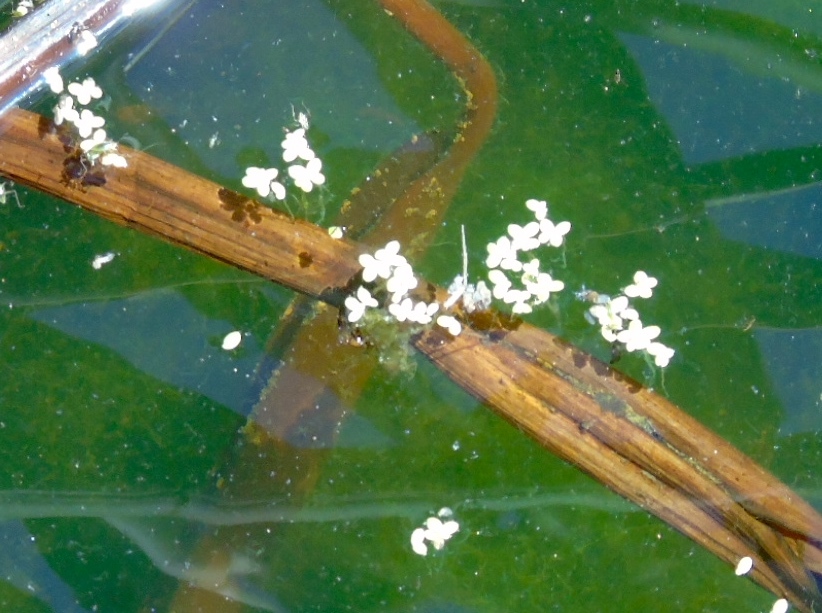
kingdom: Plantae
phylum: Tracheophyta
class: Liliopsida
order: Alismatales
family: Araceae
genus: Lemna
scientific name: Lemna minor
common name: Common duckweed
